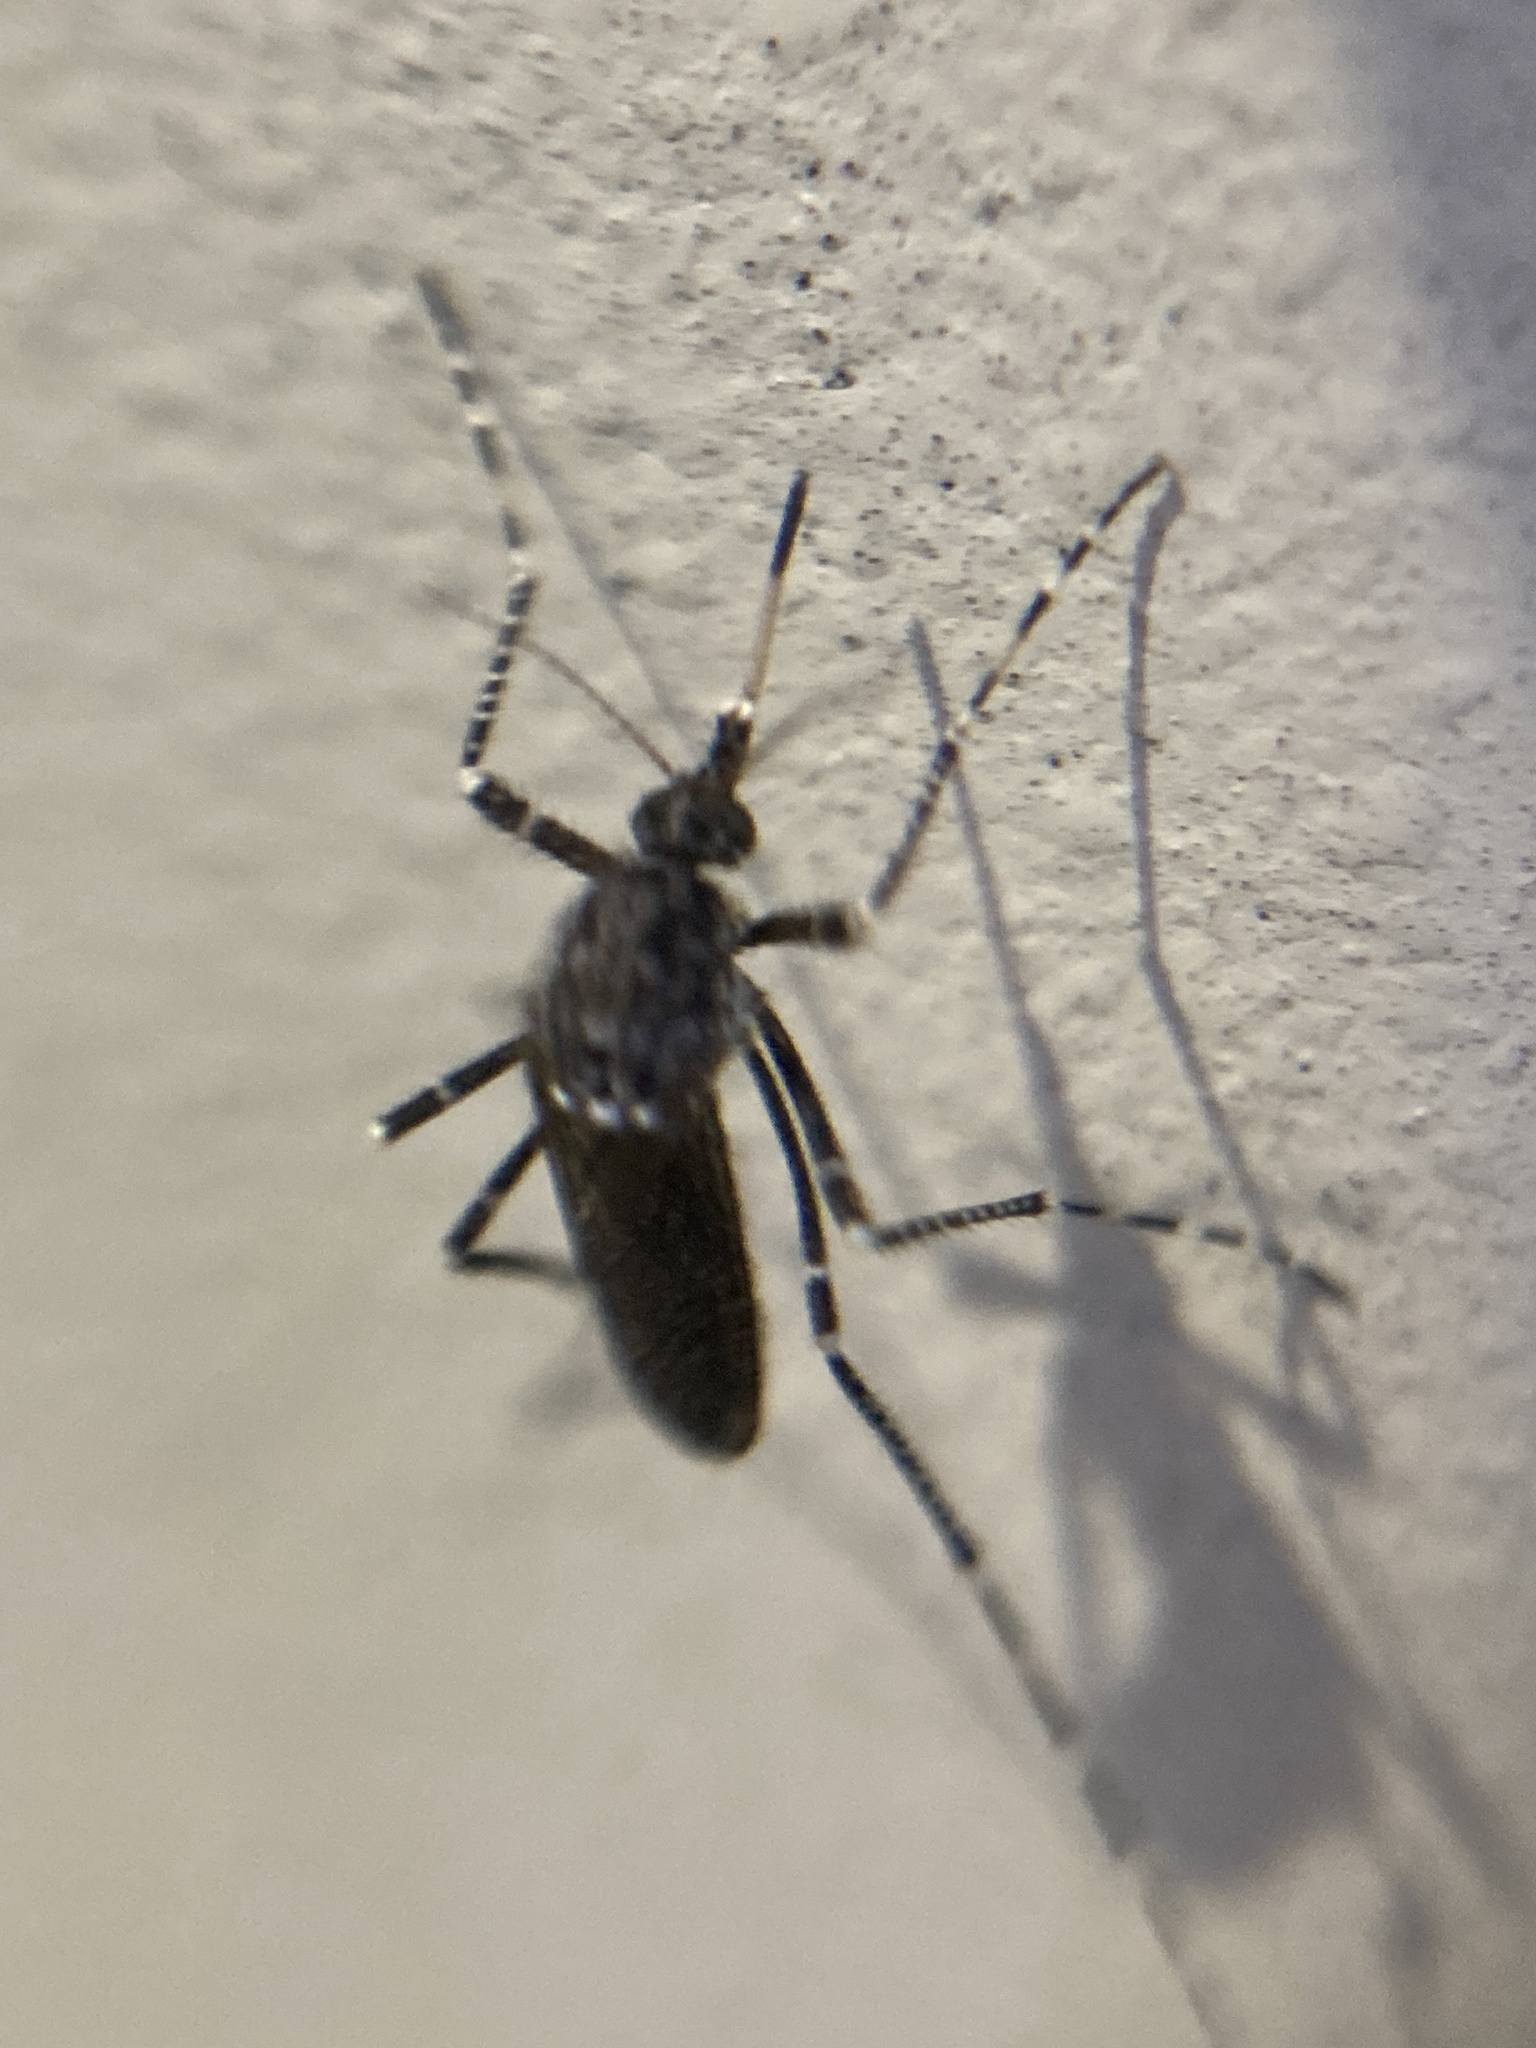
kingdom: Animalia
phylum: Arthropoda
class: Insecta
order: Diptera
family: Culicidae
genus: Psorophora
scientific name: Psorophora columbiae
